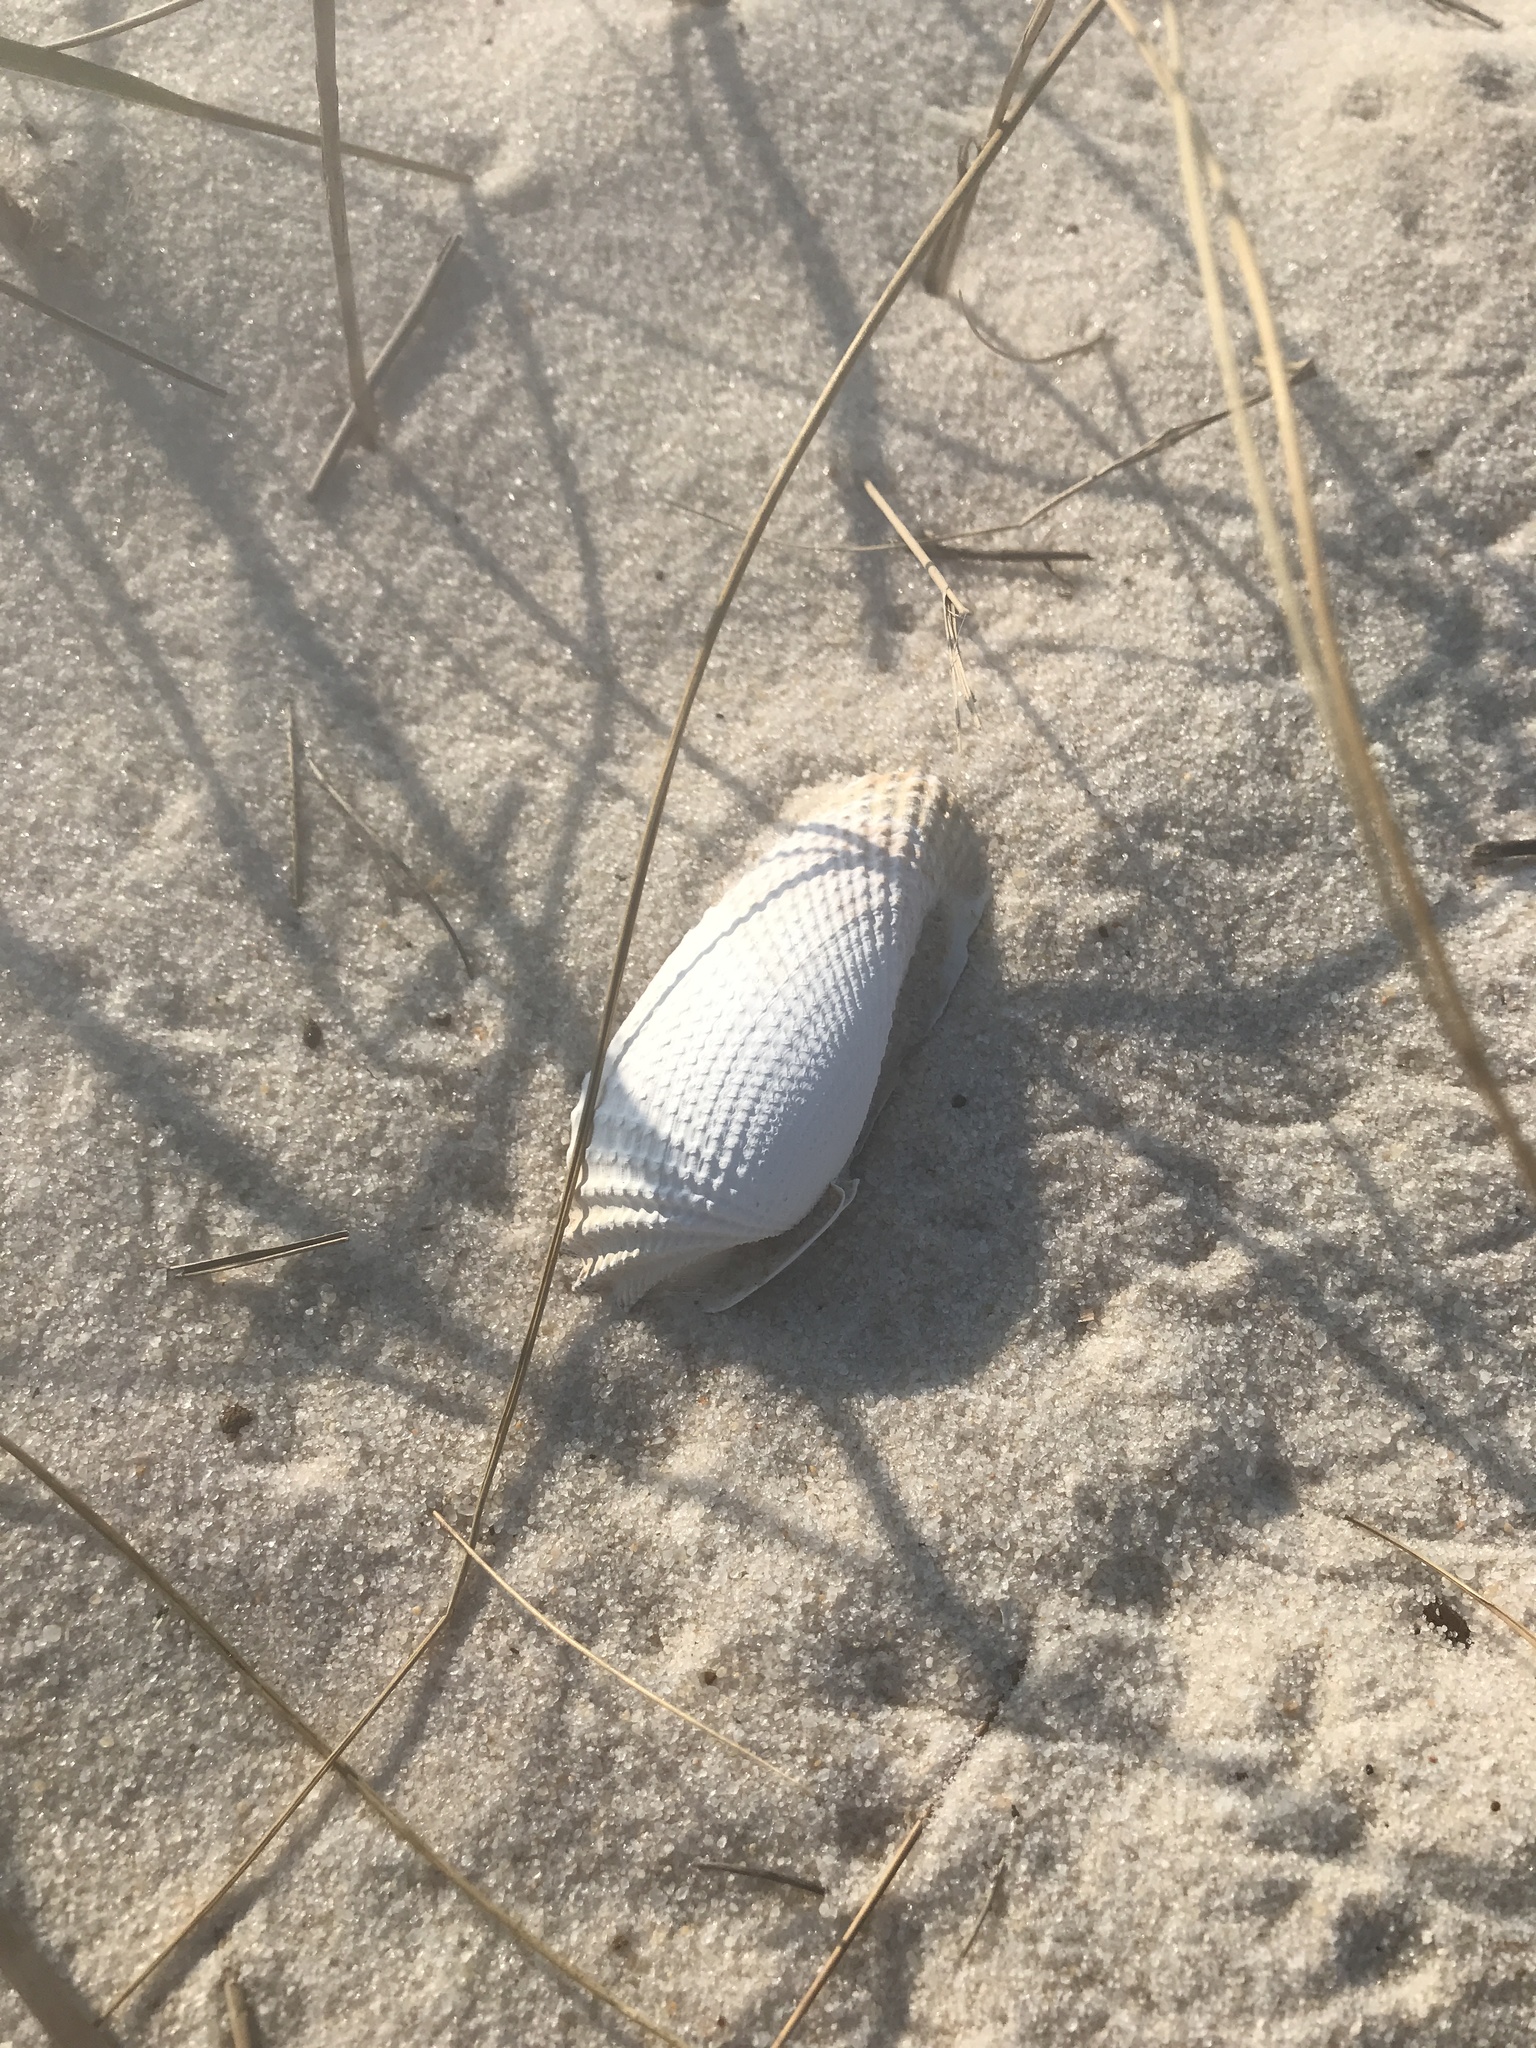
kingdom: Animalia
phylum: Mollusca
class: Bivalvia
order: Myida
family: Pholadidae
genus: Cyrtopleura
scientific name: Cyrtopleura costata
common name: Angel wing
